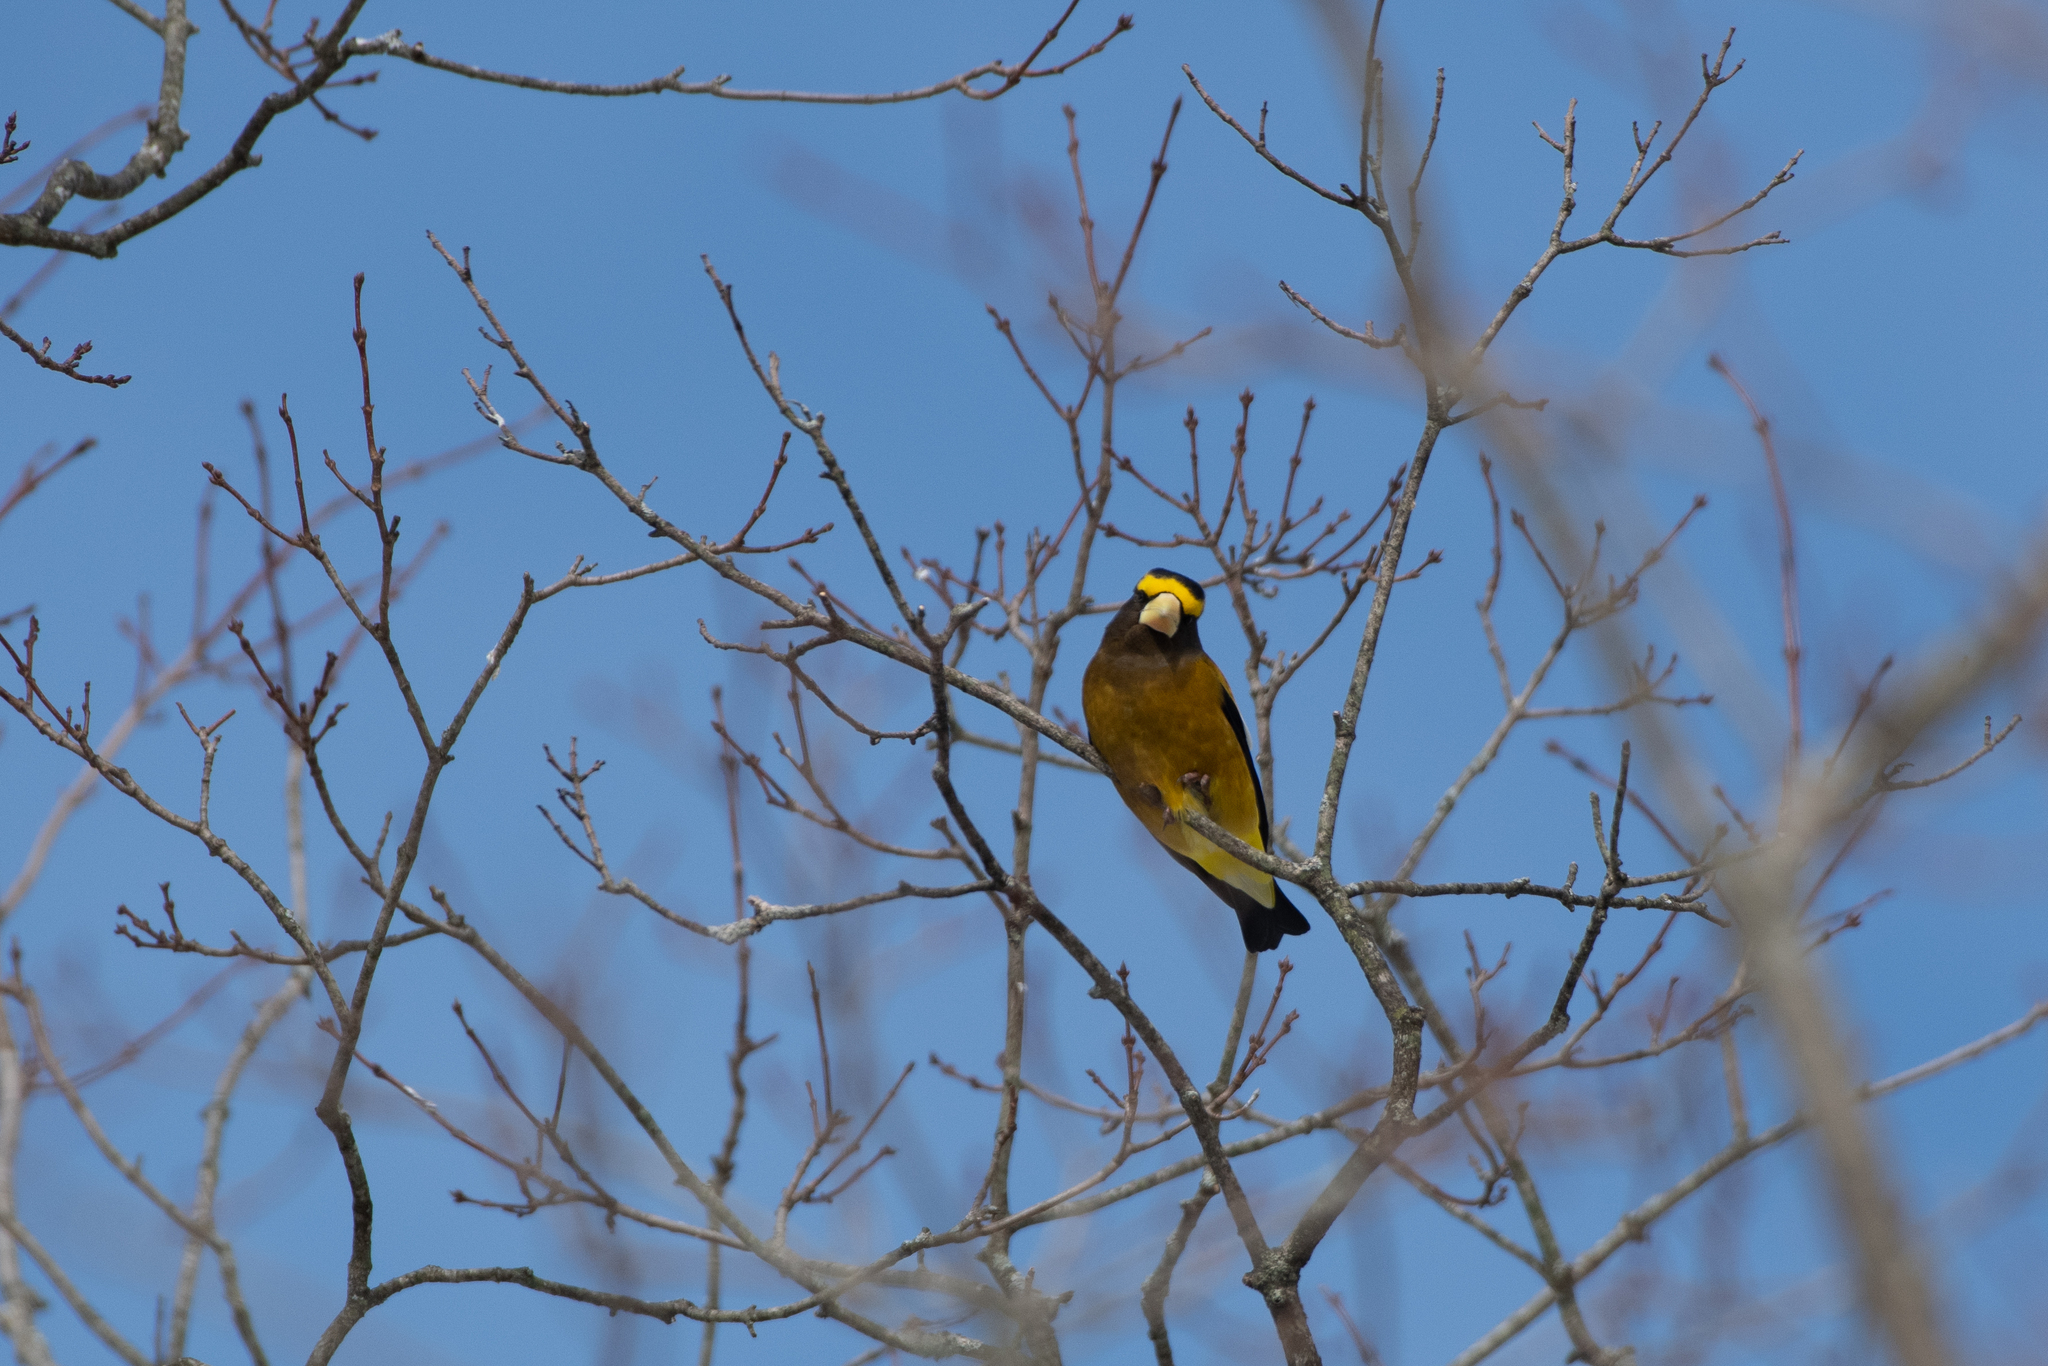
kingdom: Animalia
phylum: Chordata
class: Aves
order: Passeriformes
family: Fringillidae
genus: Hesperiphona
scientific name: Hesperiphona vespertina
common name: Evening grosbeak
